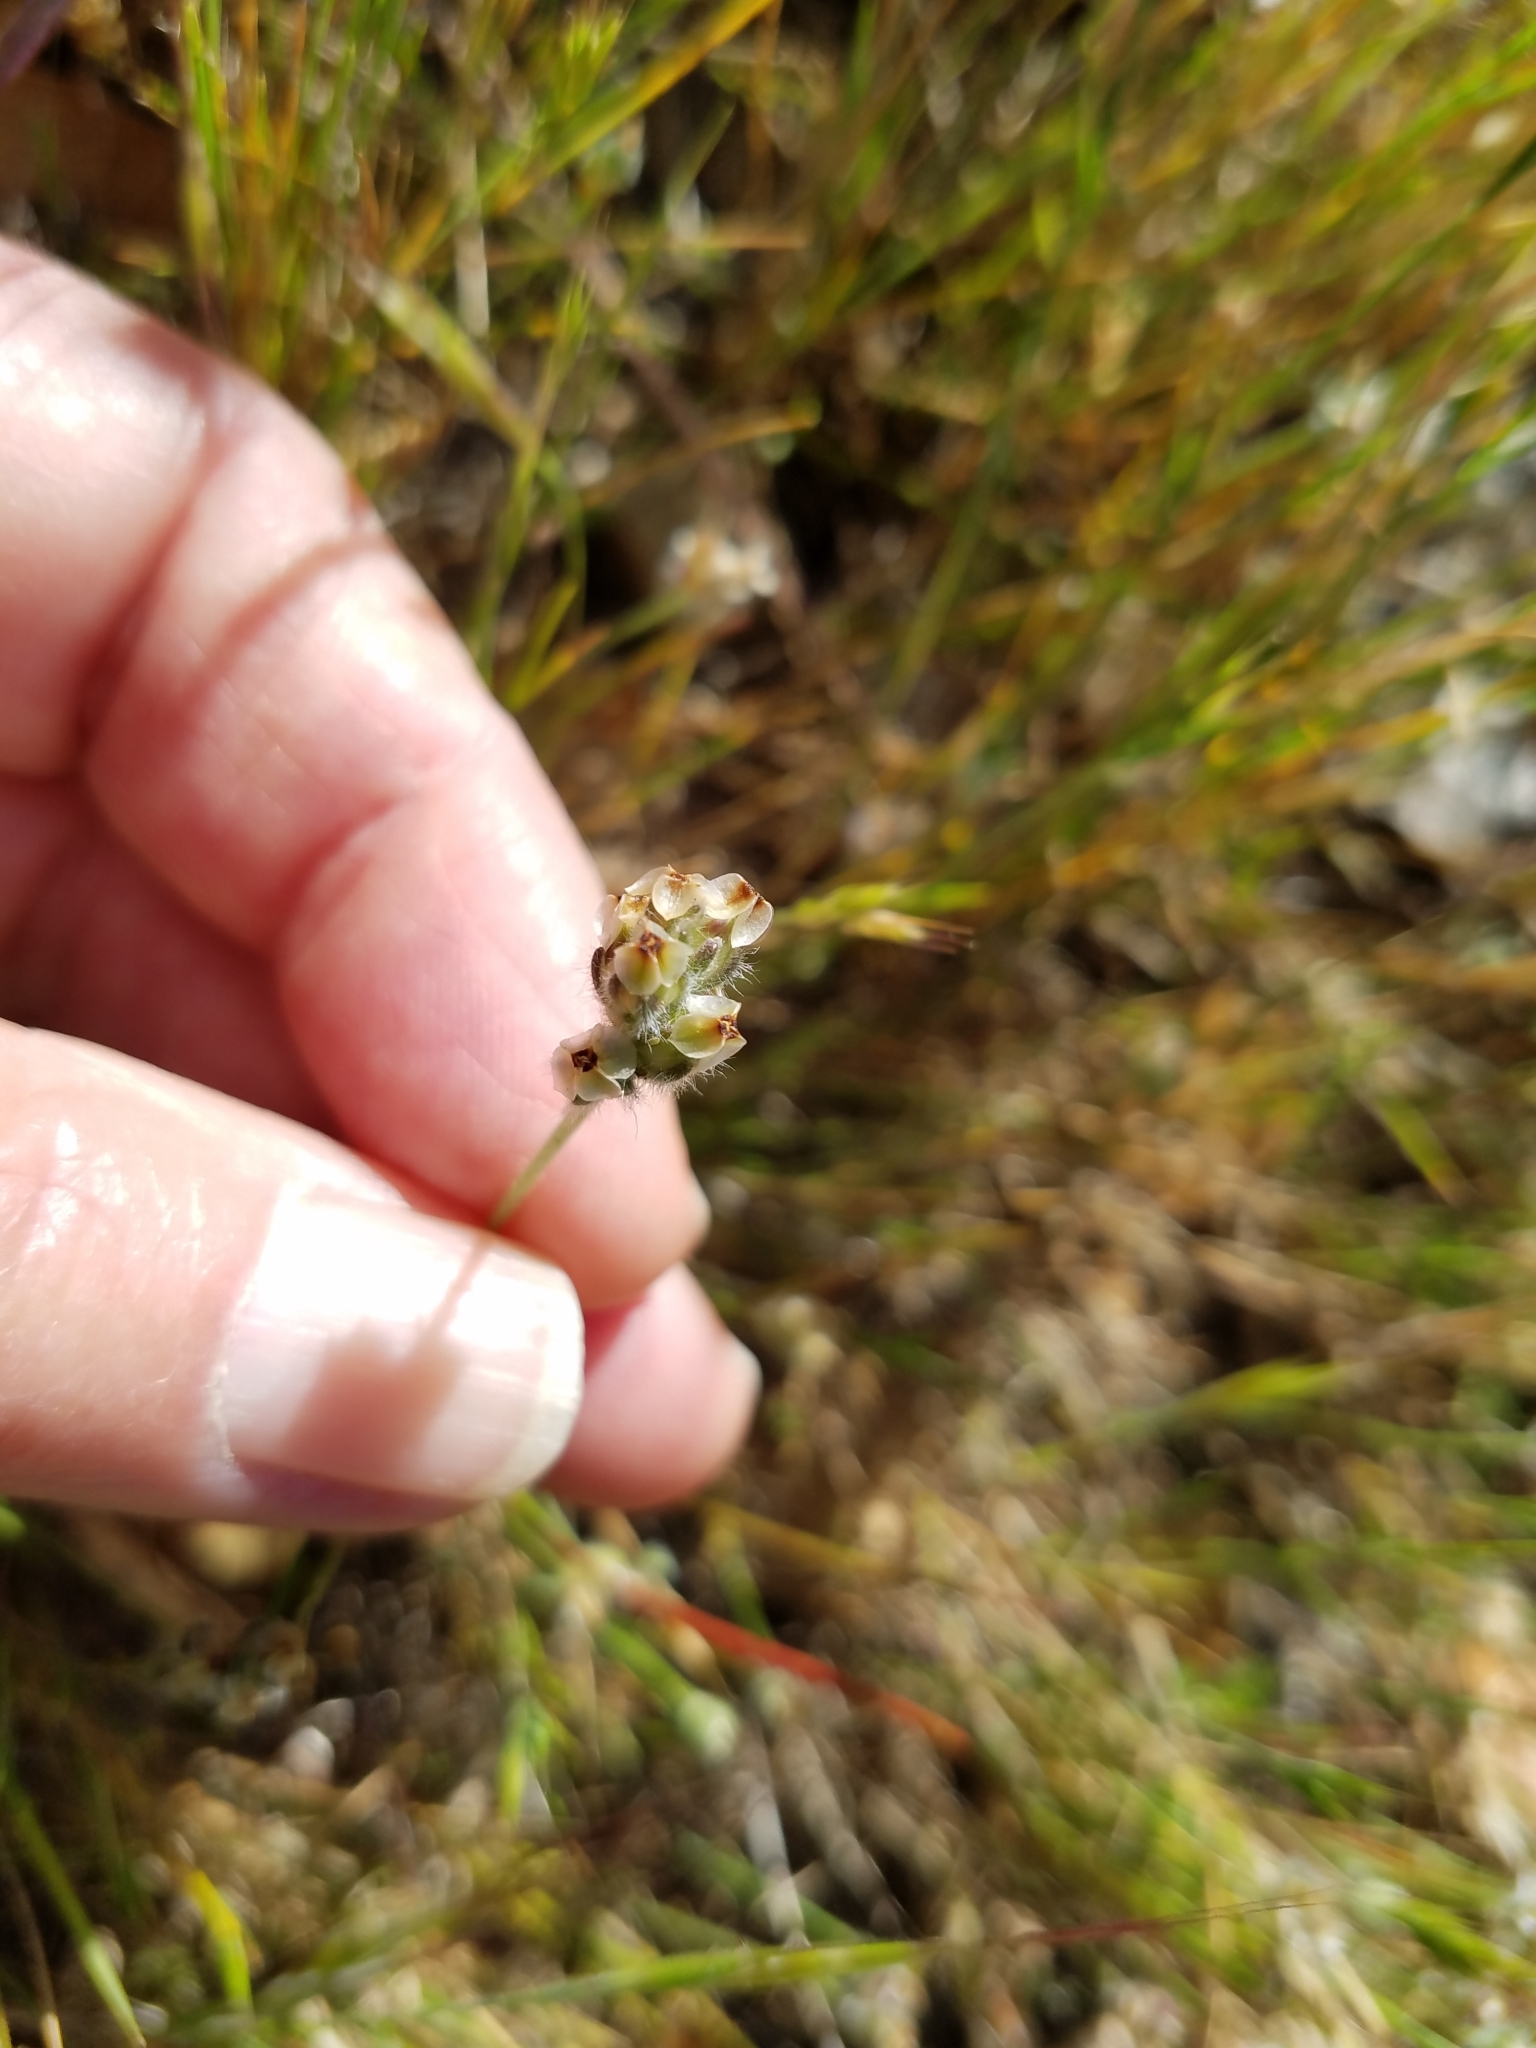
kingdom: Plantae
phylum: Tracheophyta
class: Magnoliopsida
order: Lamiales
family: Plantaginaceae
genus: Plantago
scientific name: Plantago erecta
